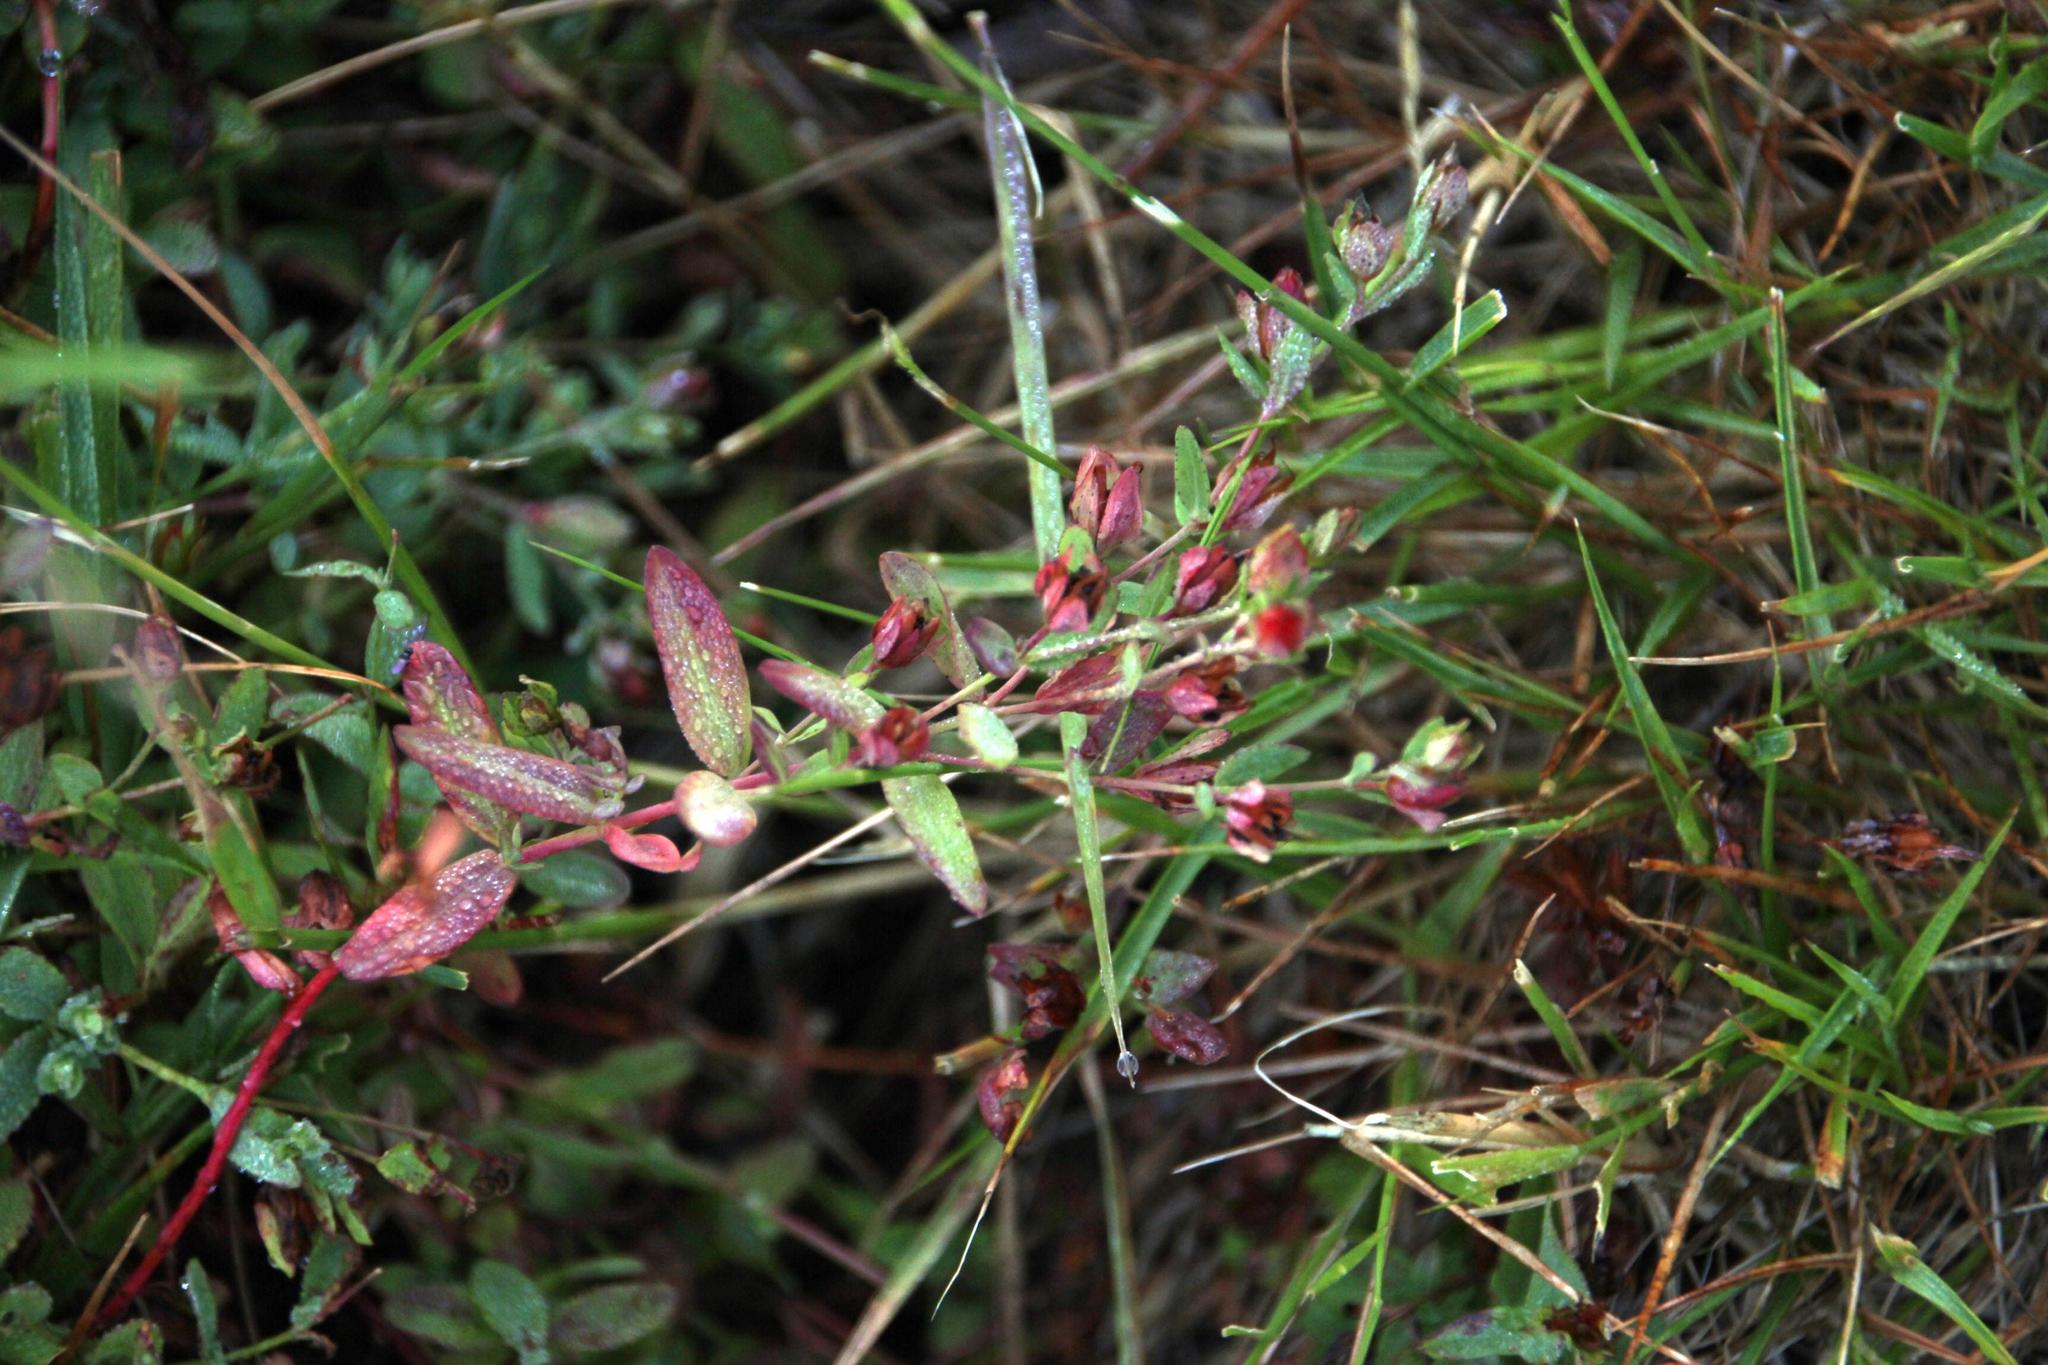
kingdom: Plantae
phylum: Tracheophyta
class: Magnoliopsida
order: Malpighiales
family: Hypericaceae
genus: Hypericum
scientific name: Hypericum humifusum
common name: Trailing st. john's-wort
